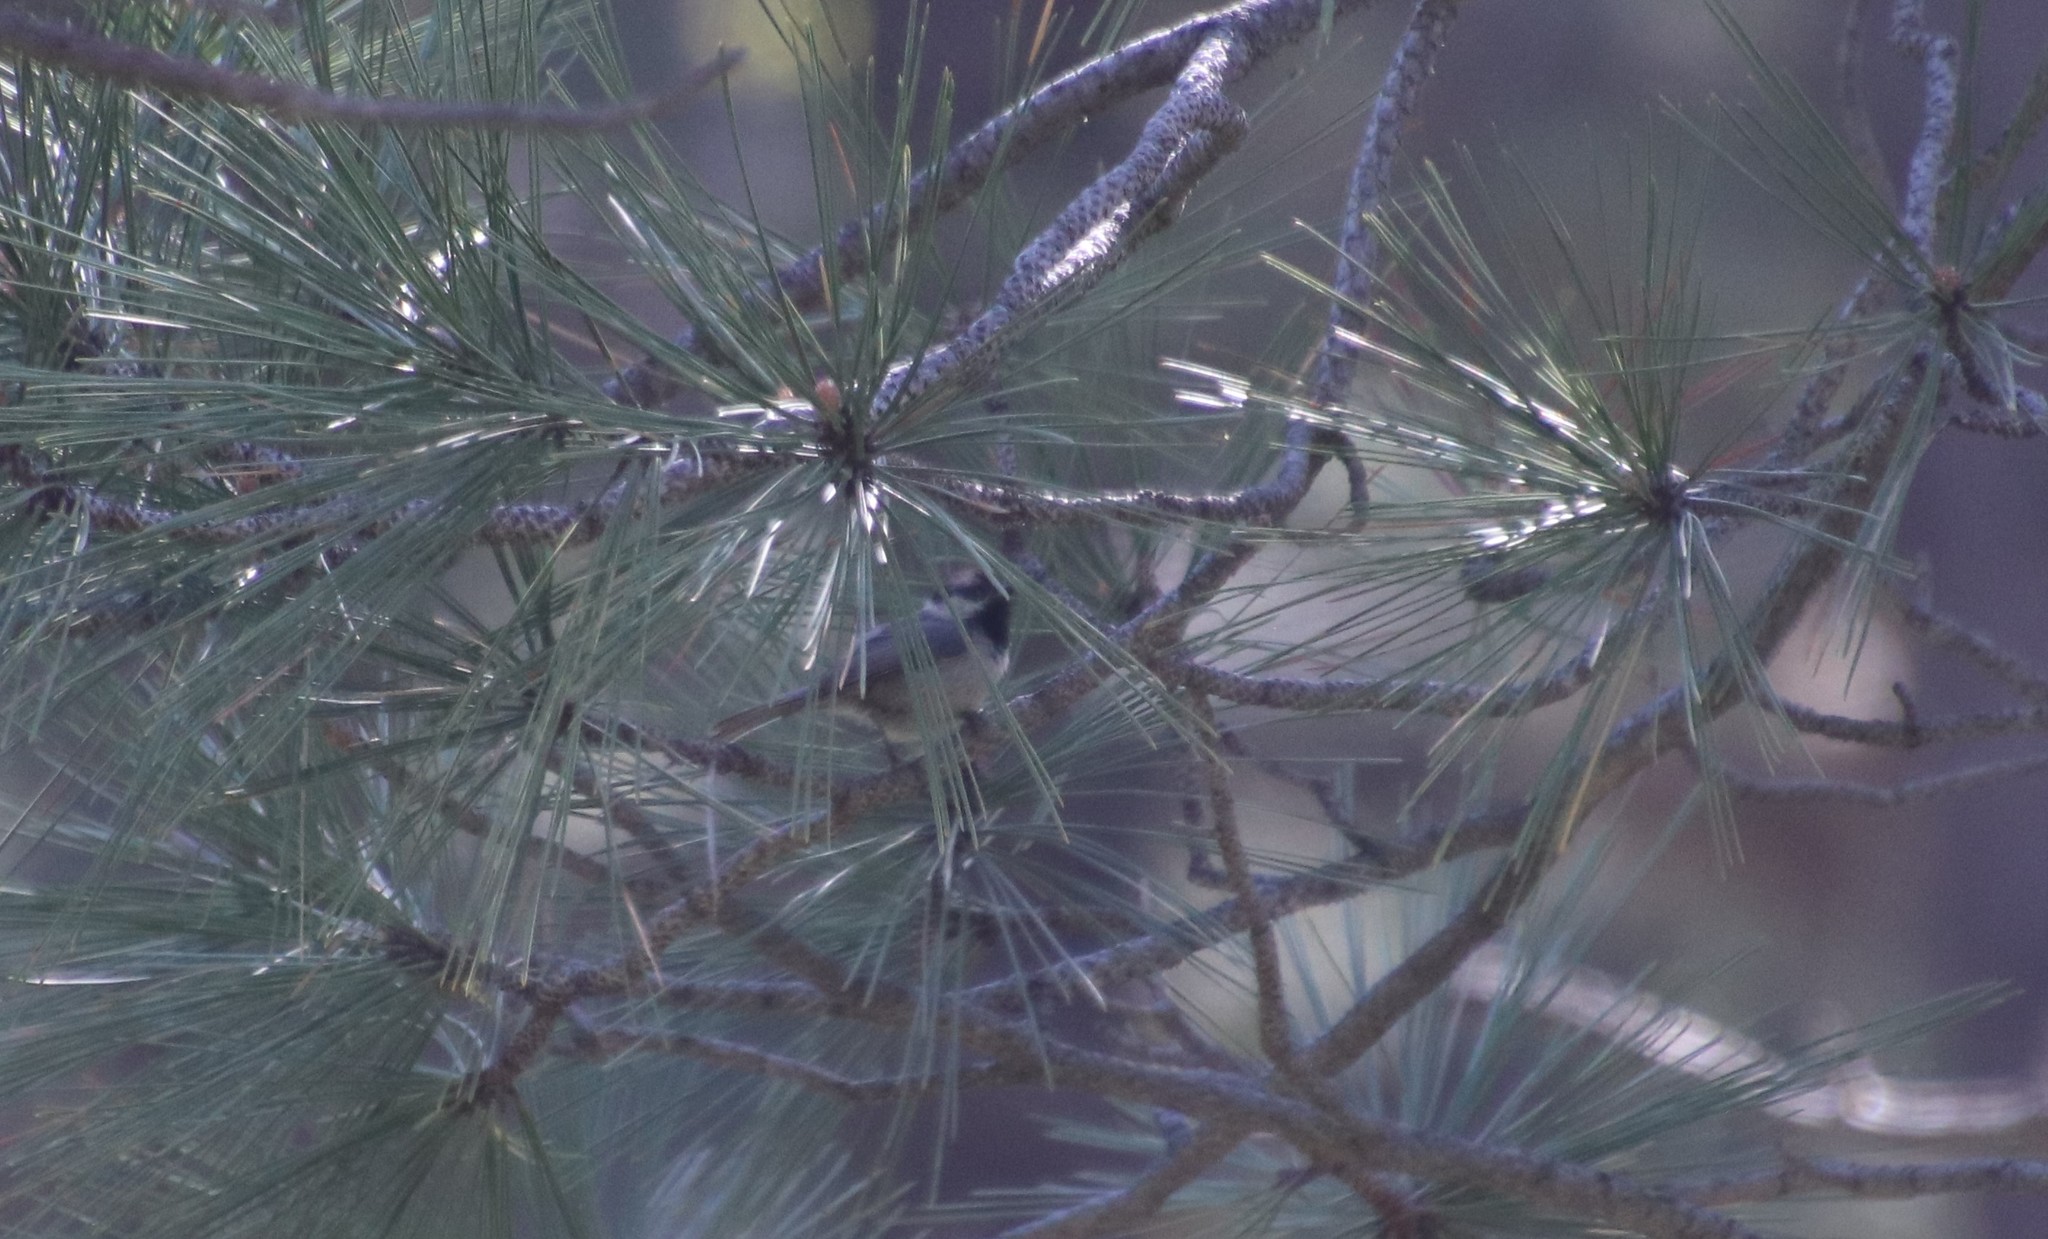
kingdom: Animalia
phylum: Chordata
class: Aves
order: Passeriformes
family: Paridae
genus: Poecile
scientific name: Poecile gambeli
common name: Mountain chickadee
